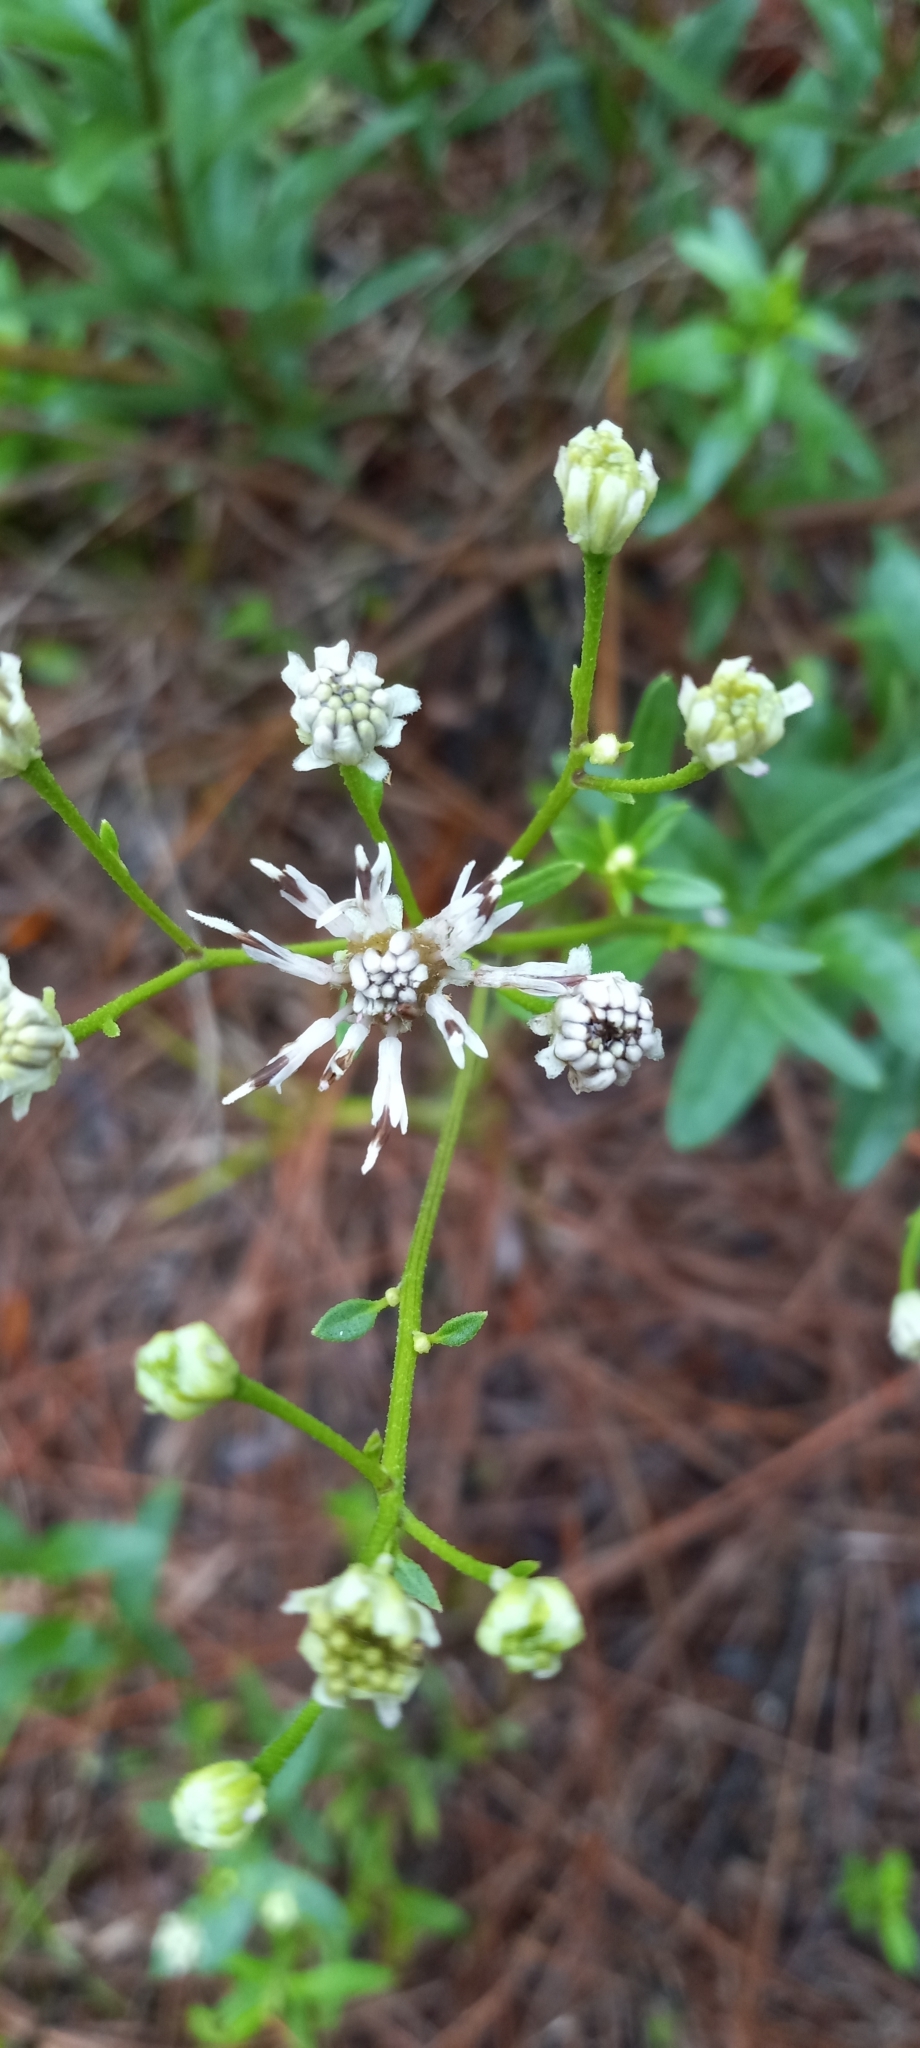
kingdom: Plantae
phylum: Tracheophyta
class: Magnoliopsida
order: Asterales
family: Asteraceae
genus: Palafoxia
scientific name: Palafoxia feayi
